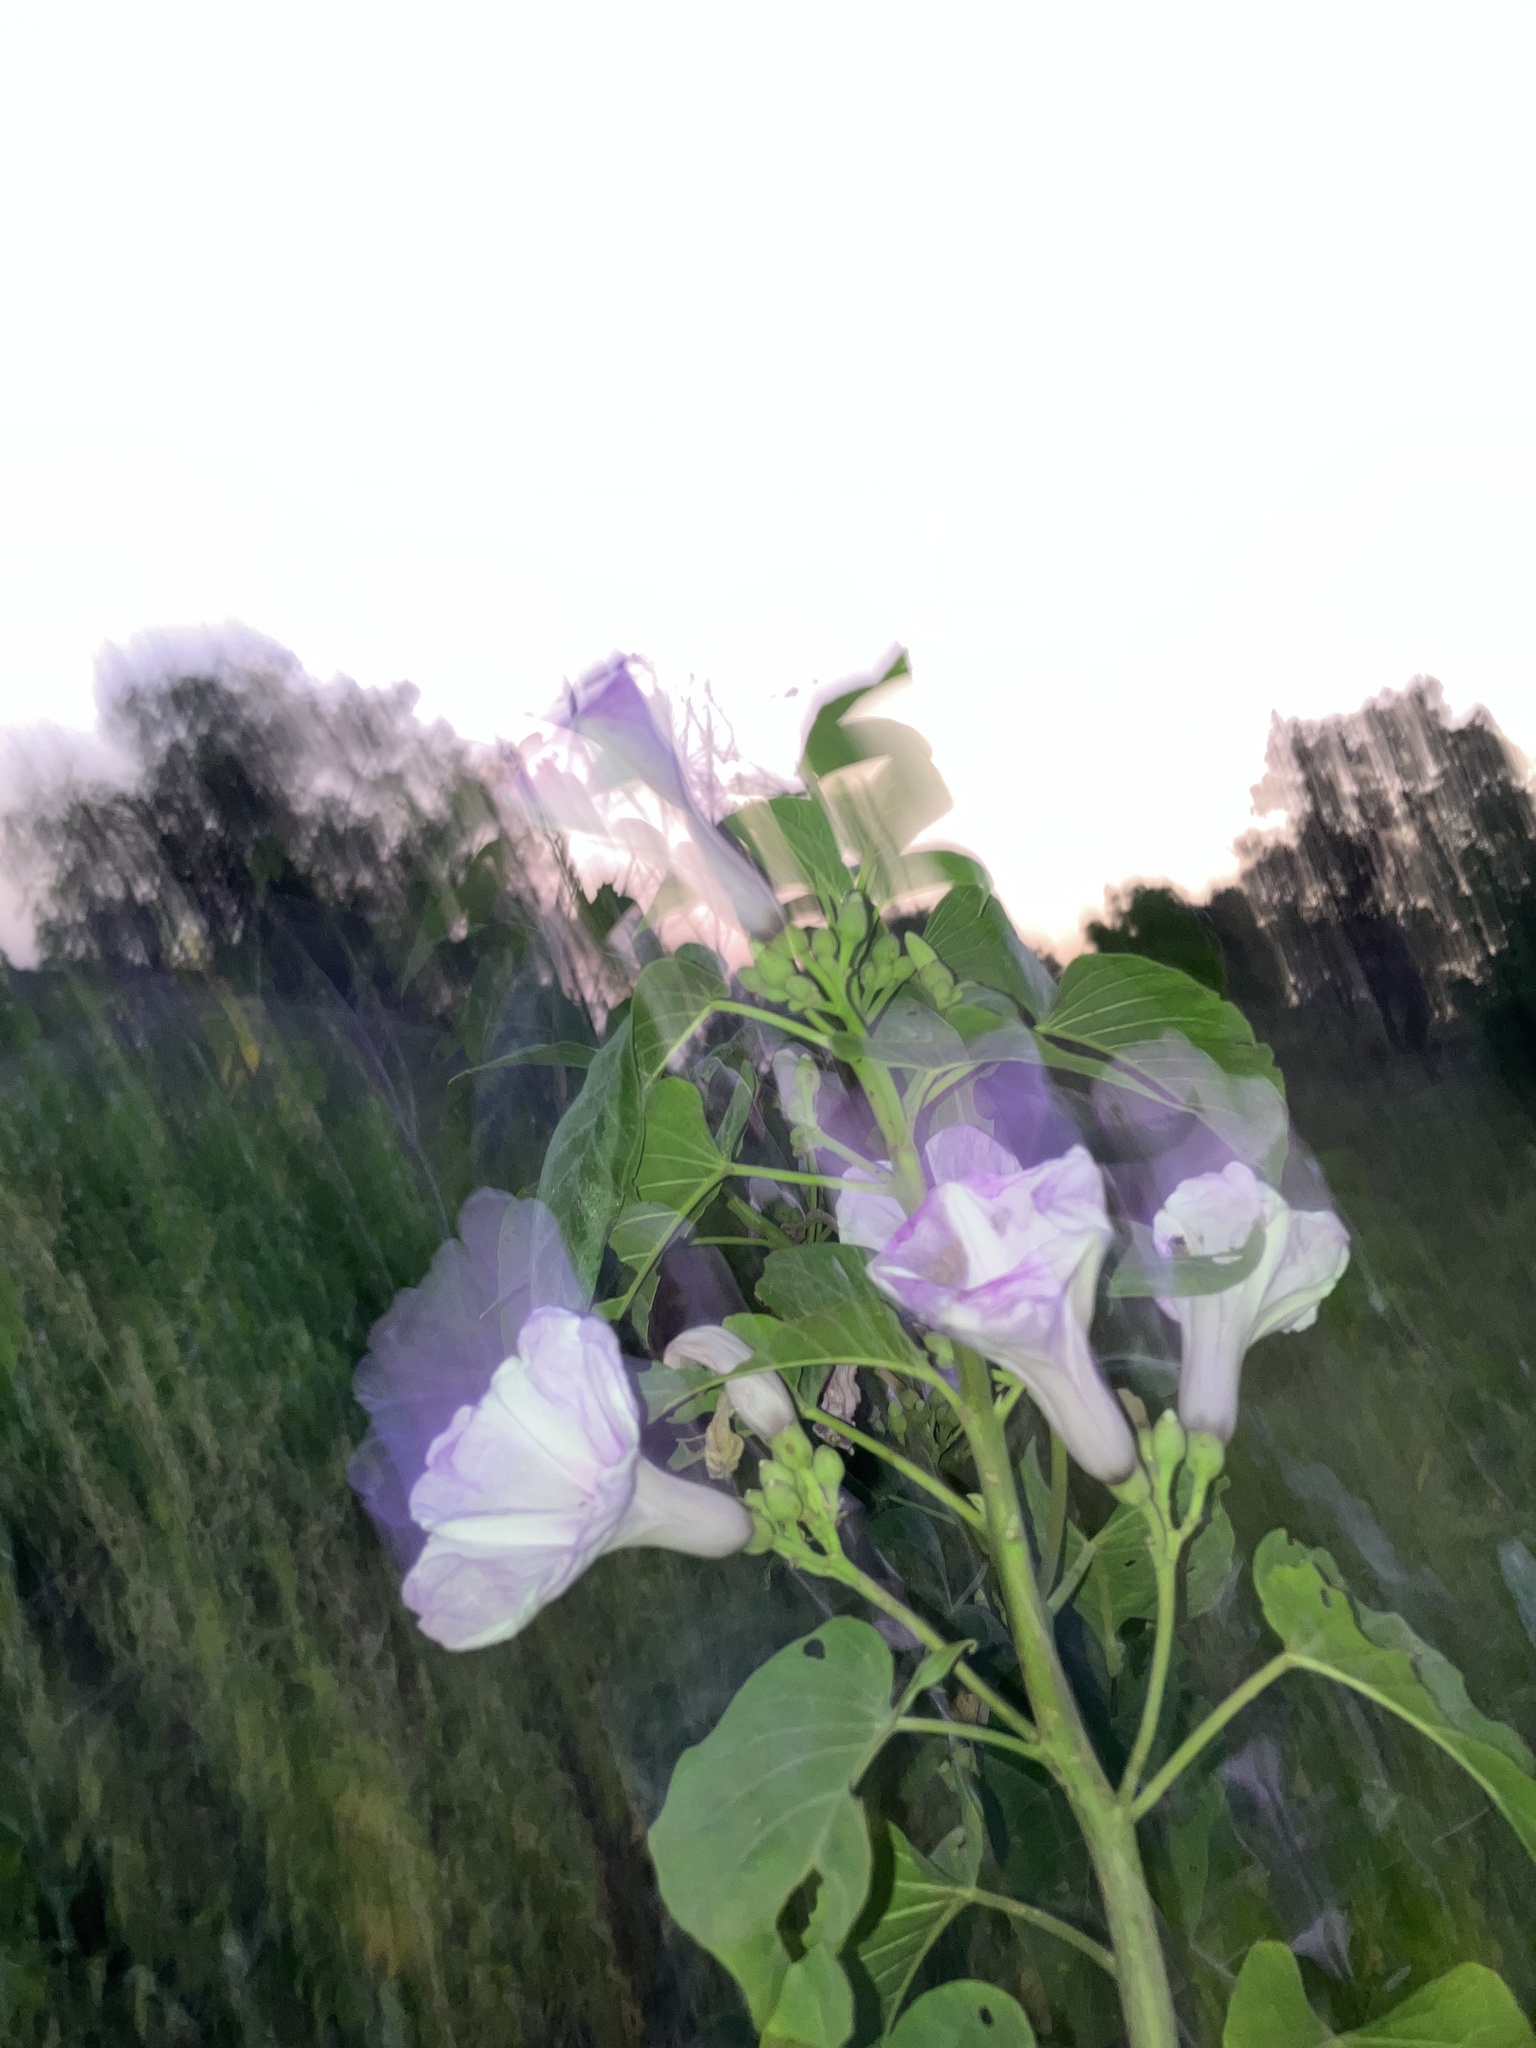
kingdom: Plantae
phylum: Tracheophyta
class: Magnoliopsida
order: Solanales
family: Convolvulaceae
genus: Ipomoea
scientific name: Ipomoea carnea
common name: Morning-glory
